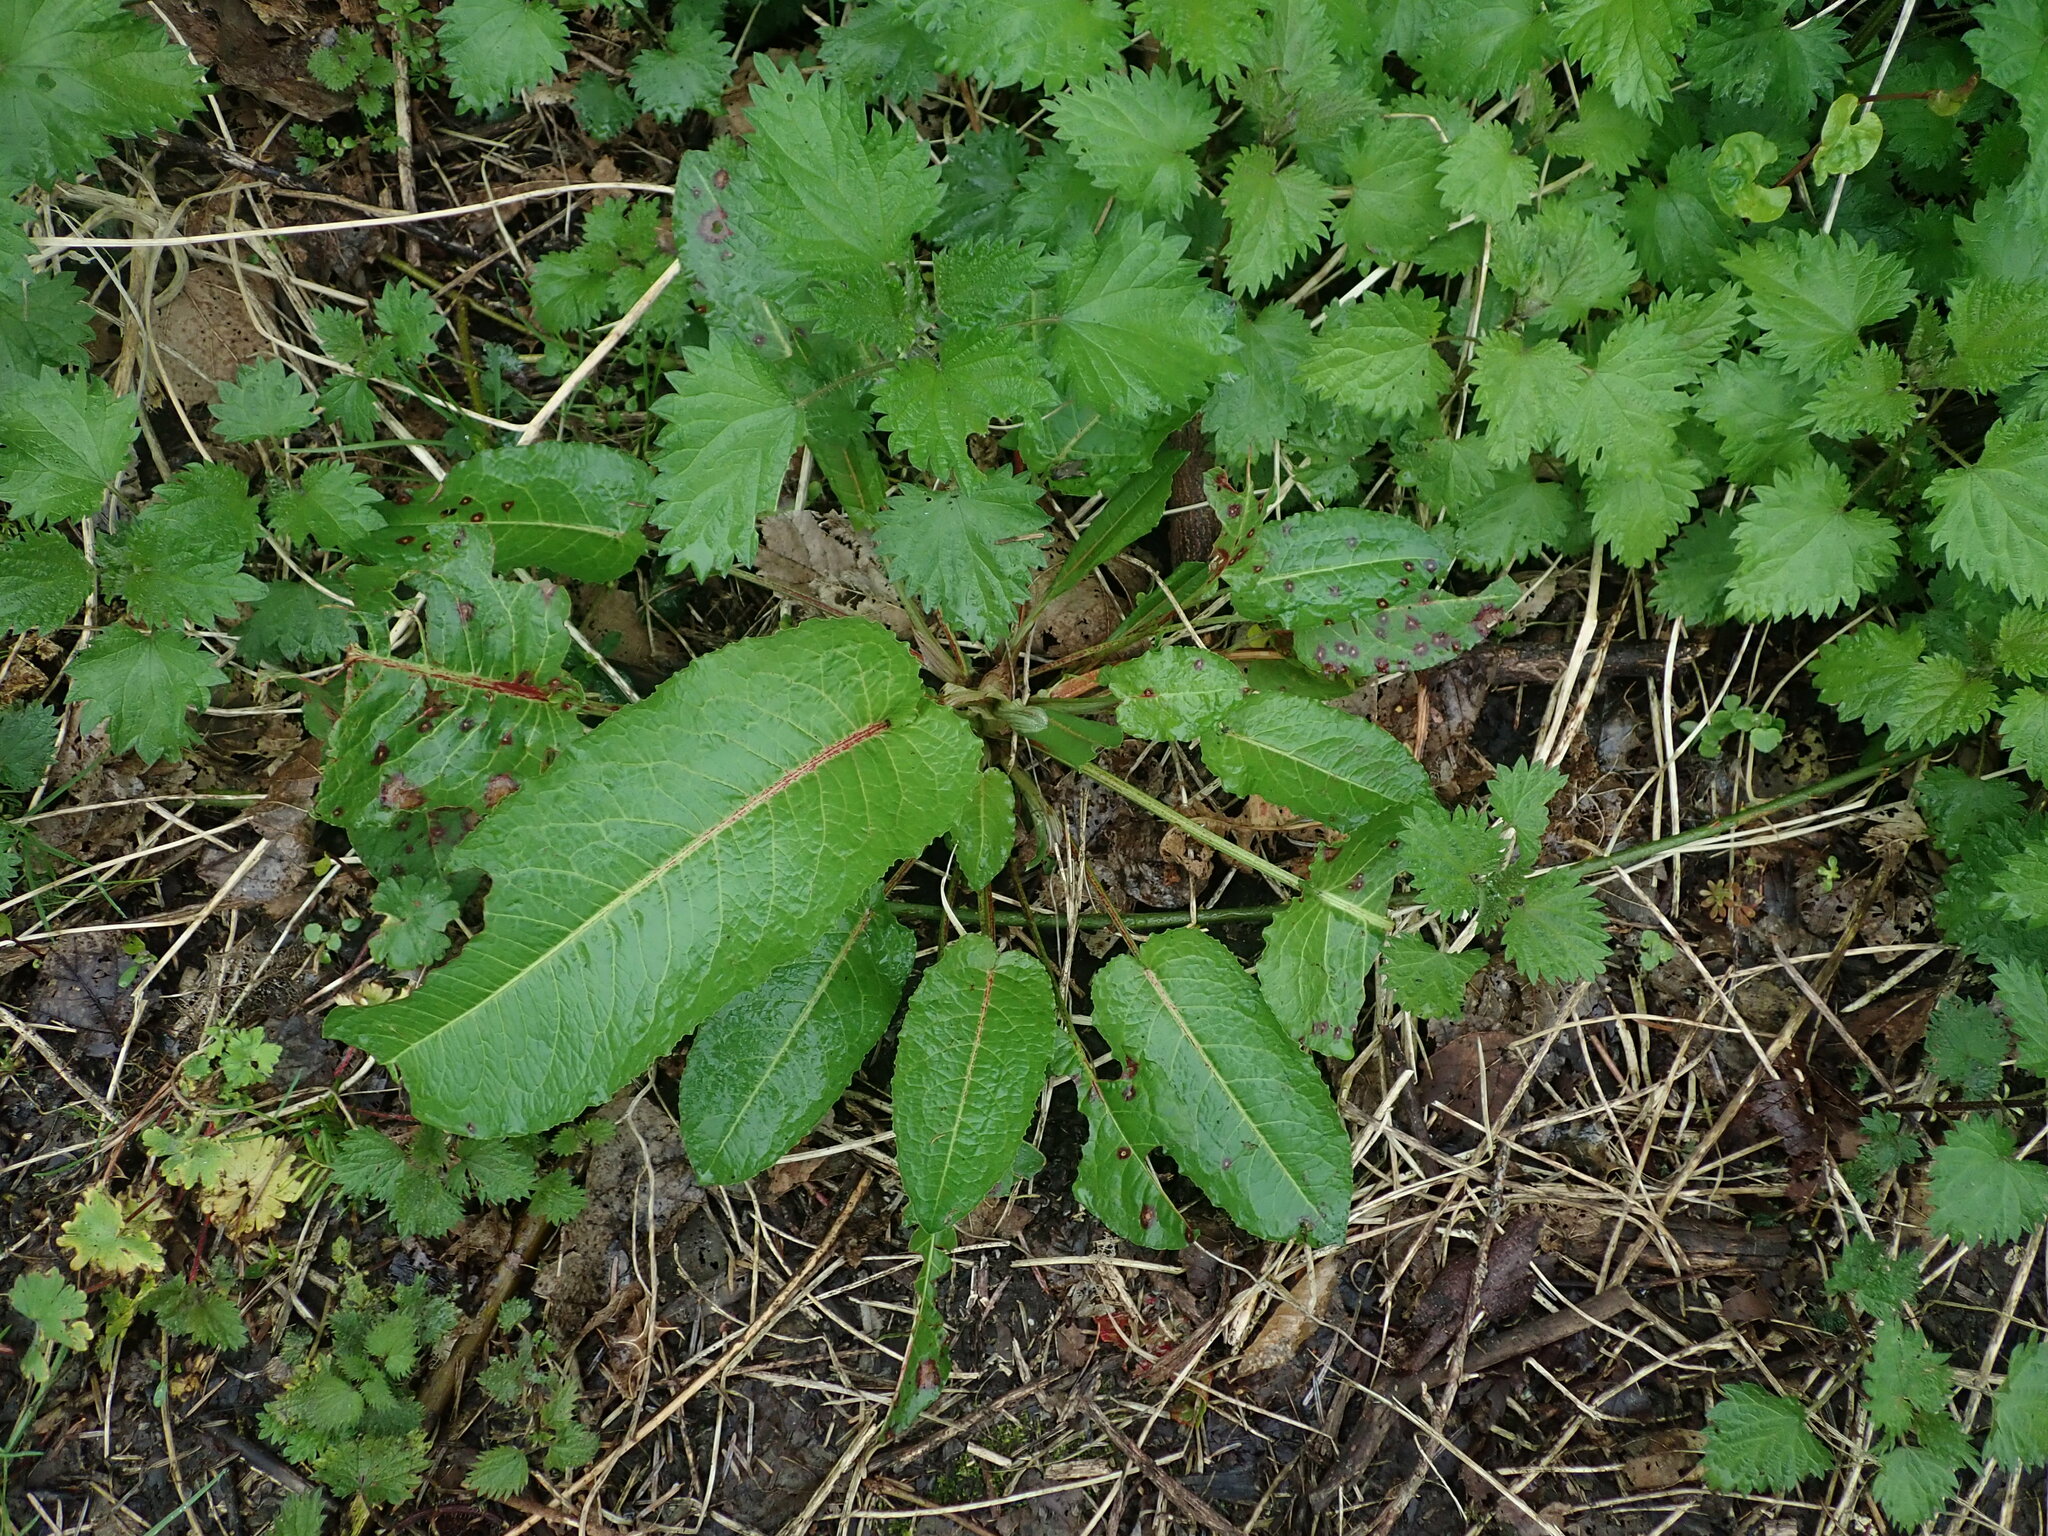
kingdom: Plantae
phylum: Tracheophyta
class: Magnoliopsida
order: Caryophyllales
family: Polygonaceae
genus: Rumex
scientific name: Rumex obtusifolius
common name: Bitter dock
